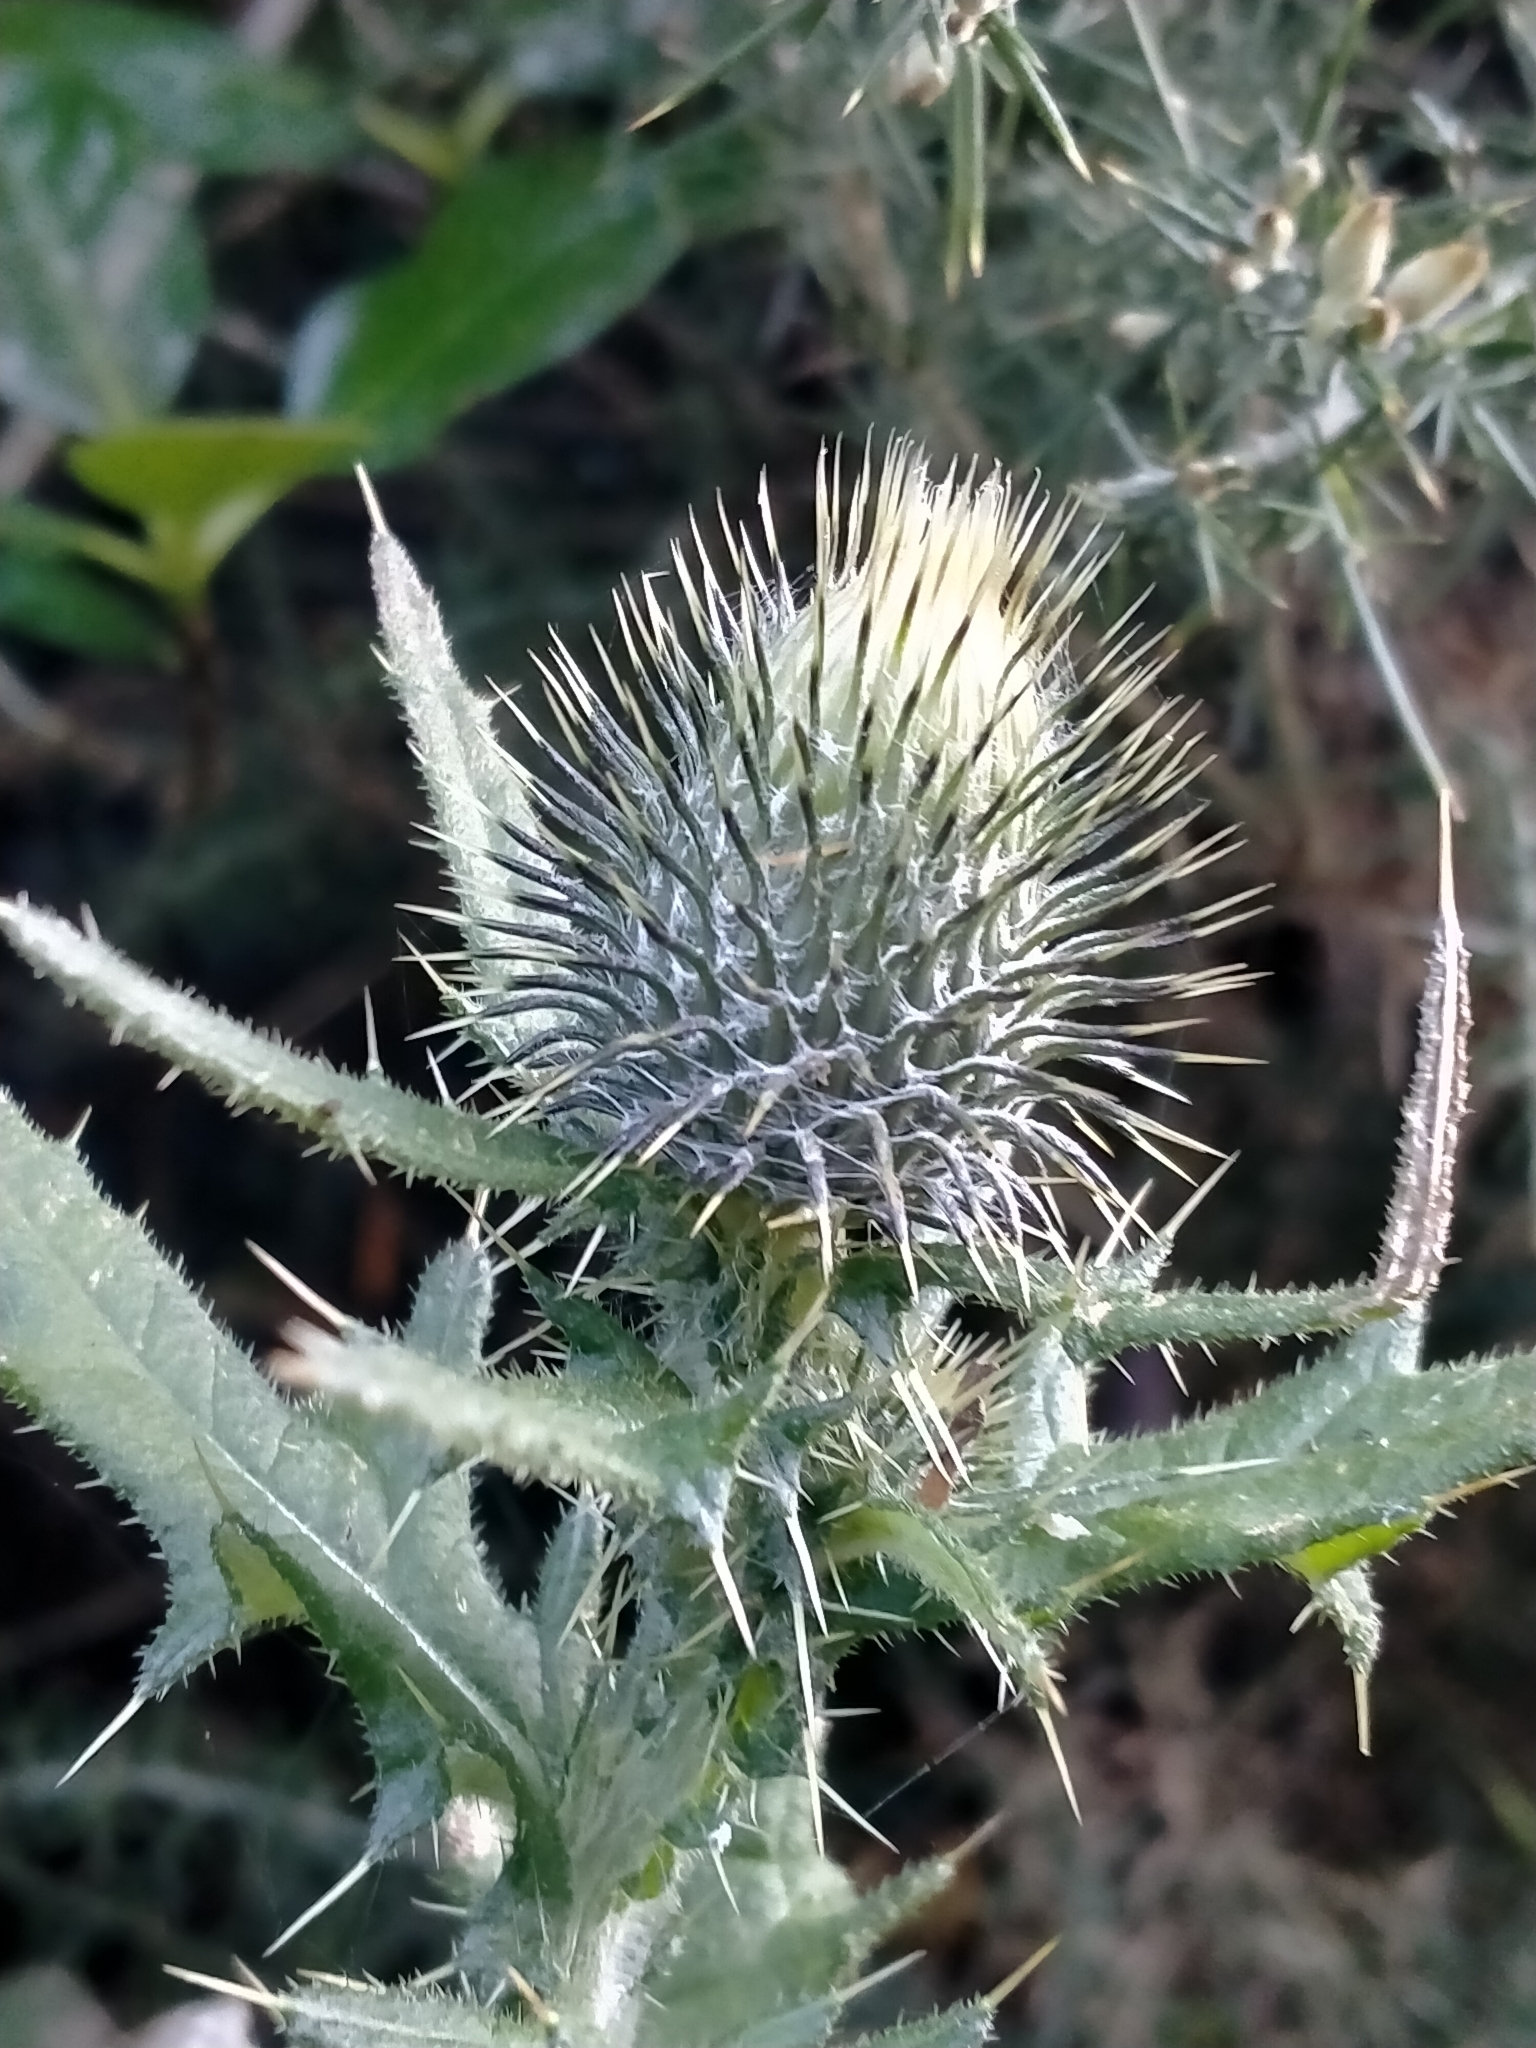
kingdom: Plantae
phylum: Tracheophyta
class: Magnoliopsida
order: Asterales
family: Asteraceae
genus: Cirsium
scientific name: Cirsium vulgare
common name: Bull thistle
